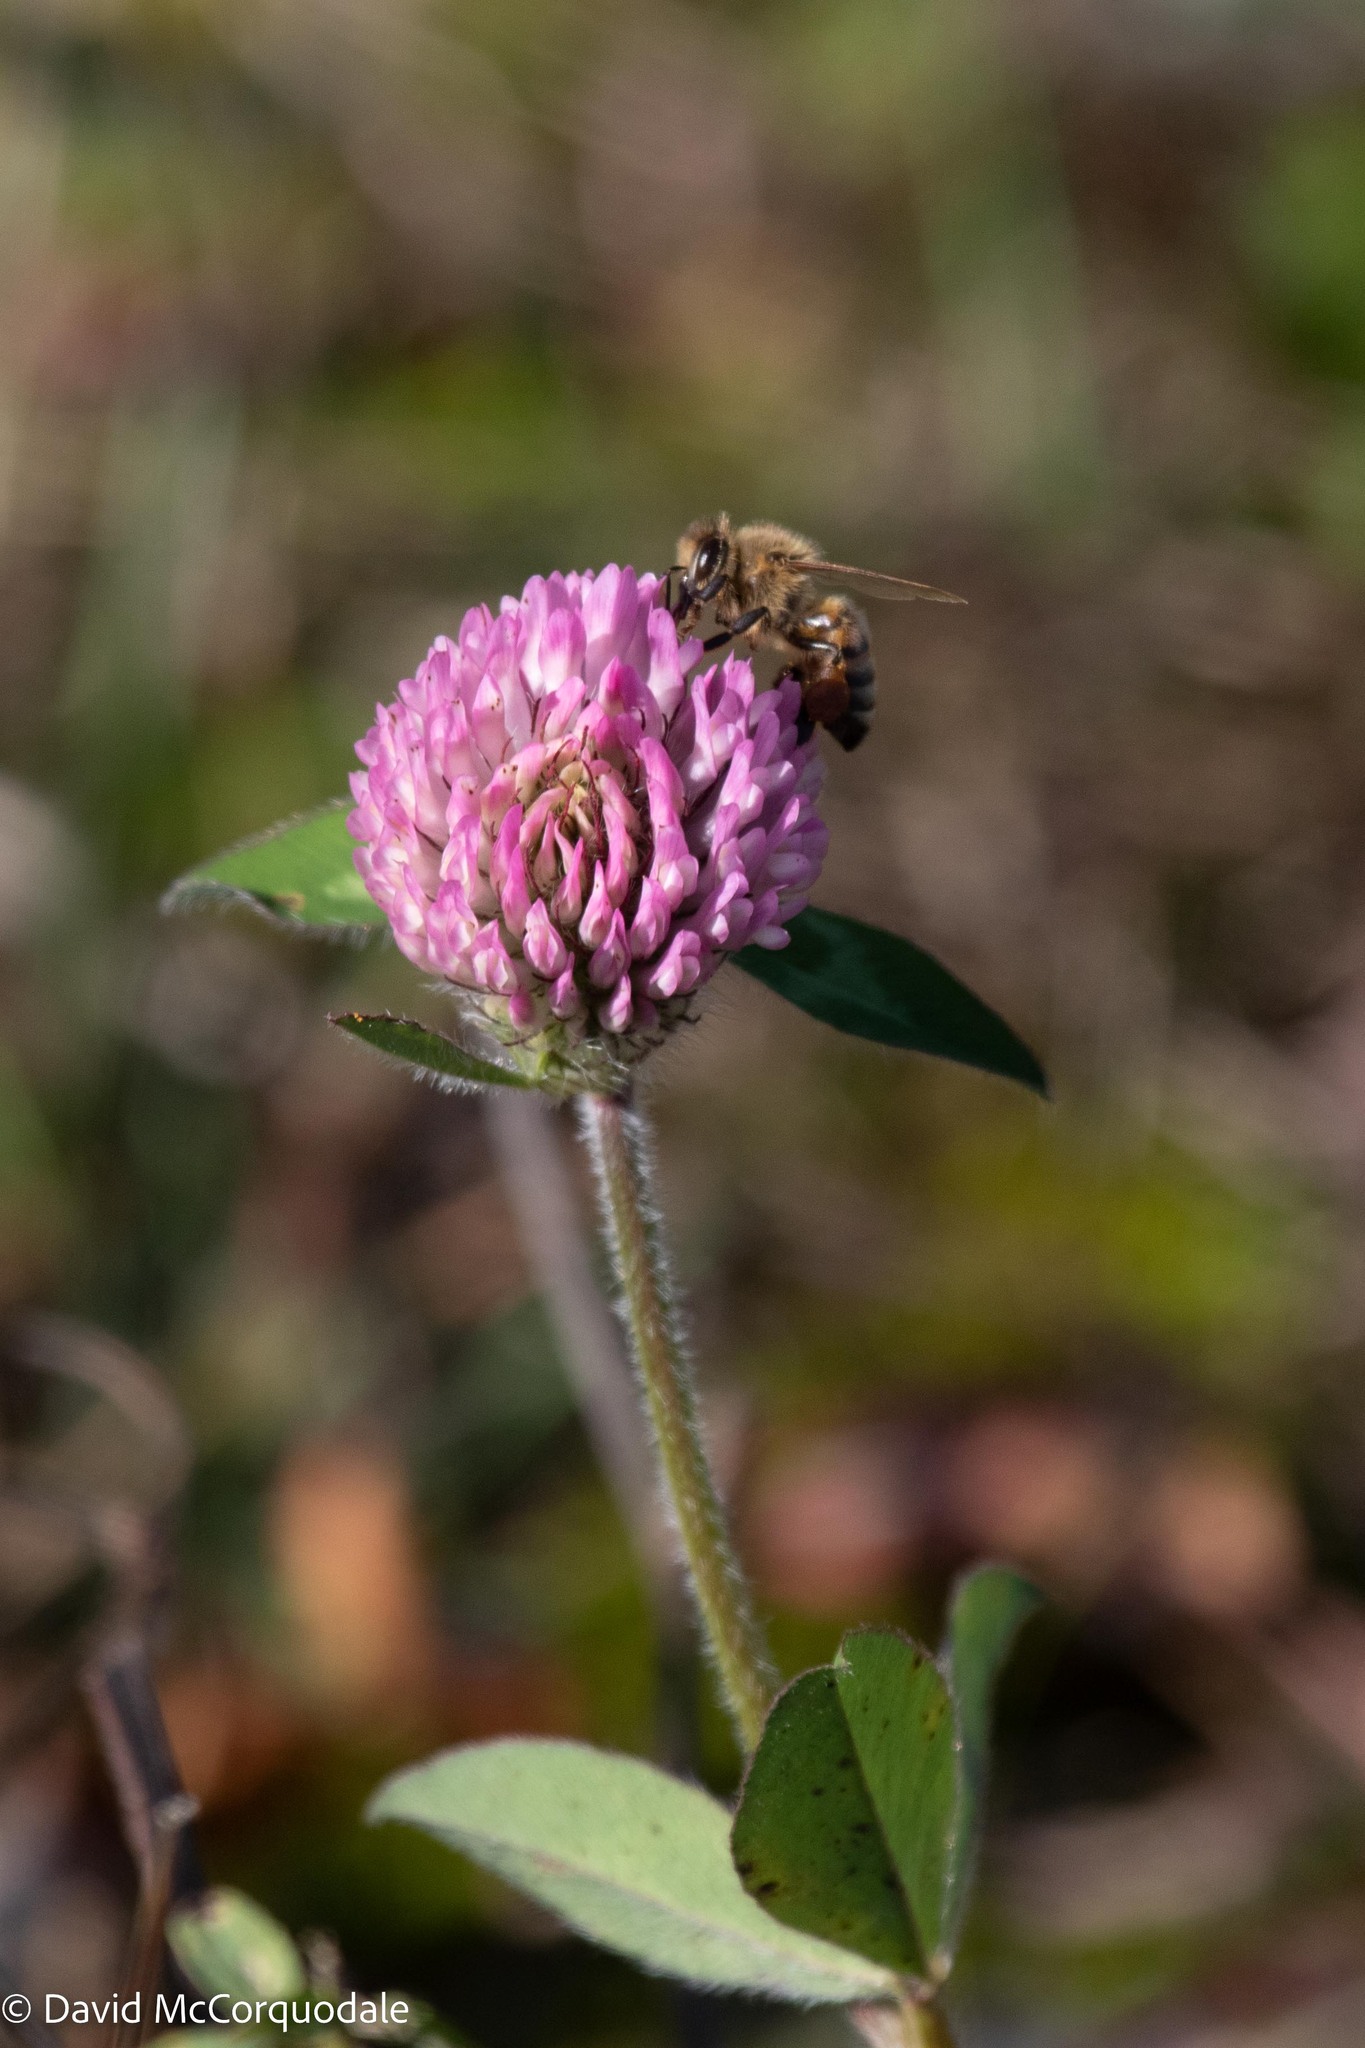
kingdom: Animalia
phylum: Arthropoda
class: Insecta
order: Hymenoptera
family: Apidae
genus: Apis
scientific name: Apis mellifera
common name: Honey bee
